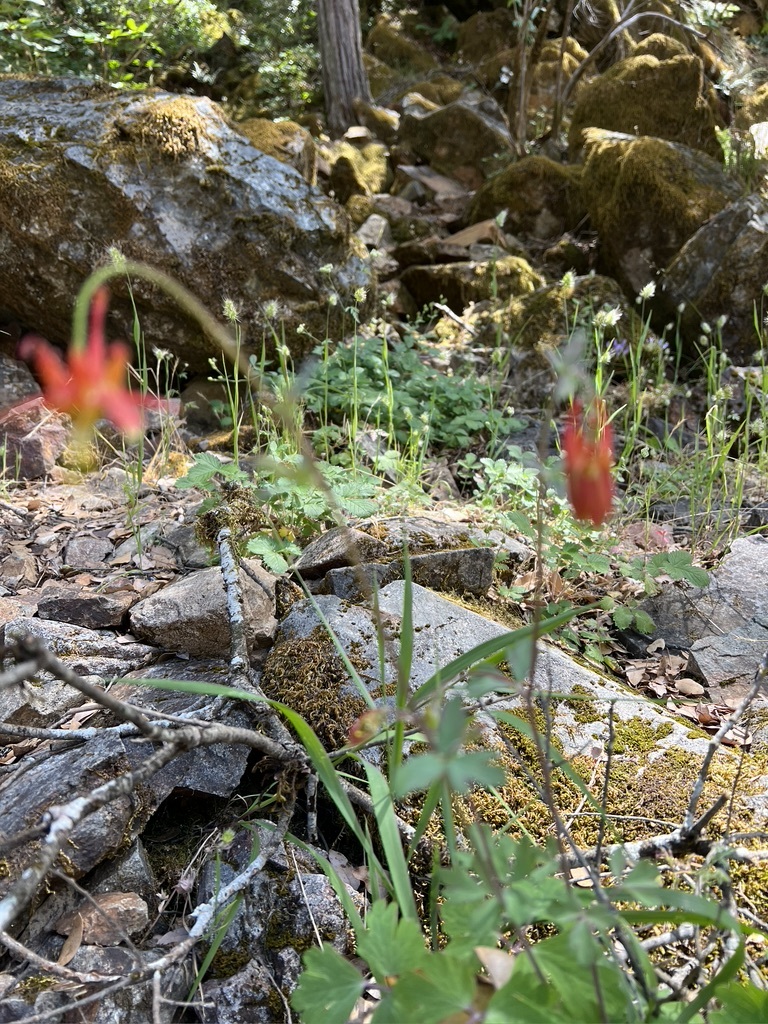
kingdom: Plantae
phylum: Tracheophyta
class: Magnoliopsida
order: Ranunculales
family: Ranunculaceae
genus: Aquilegia
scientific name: Aquilegia formosa
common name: Sitka columbine
